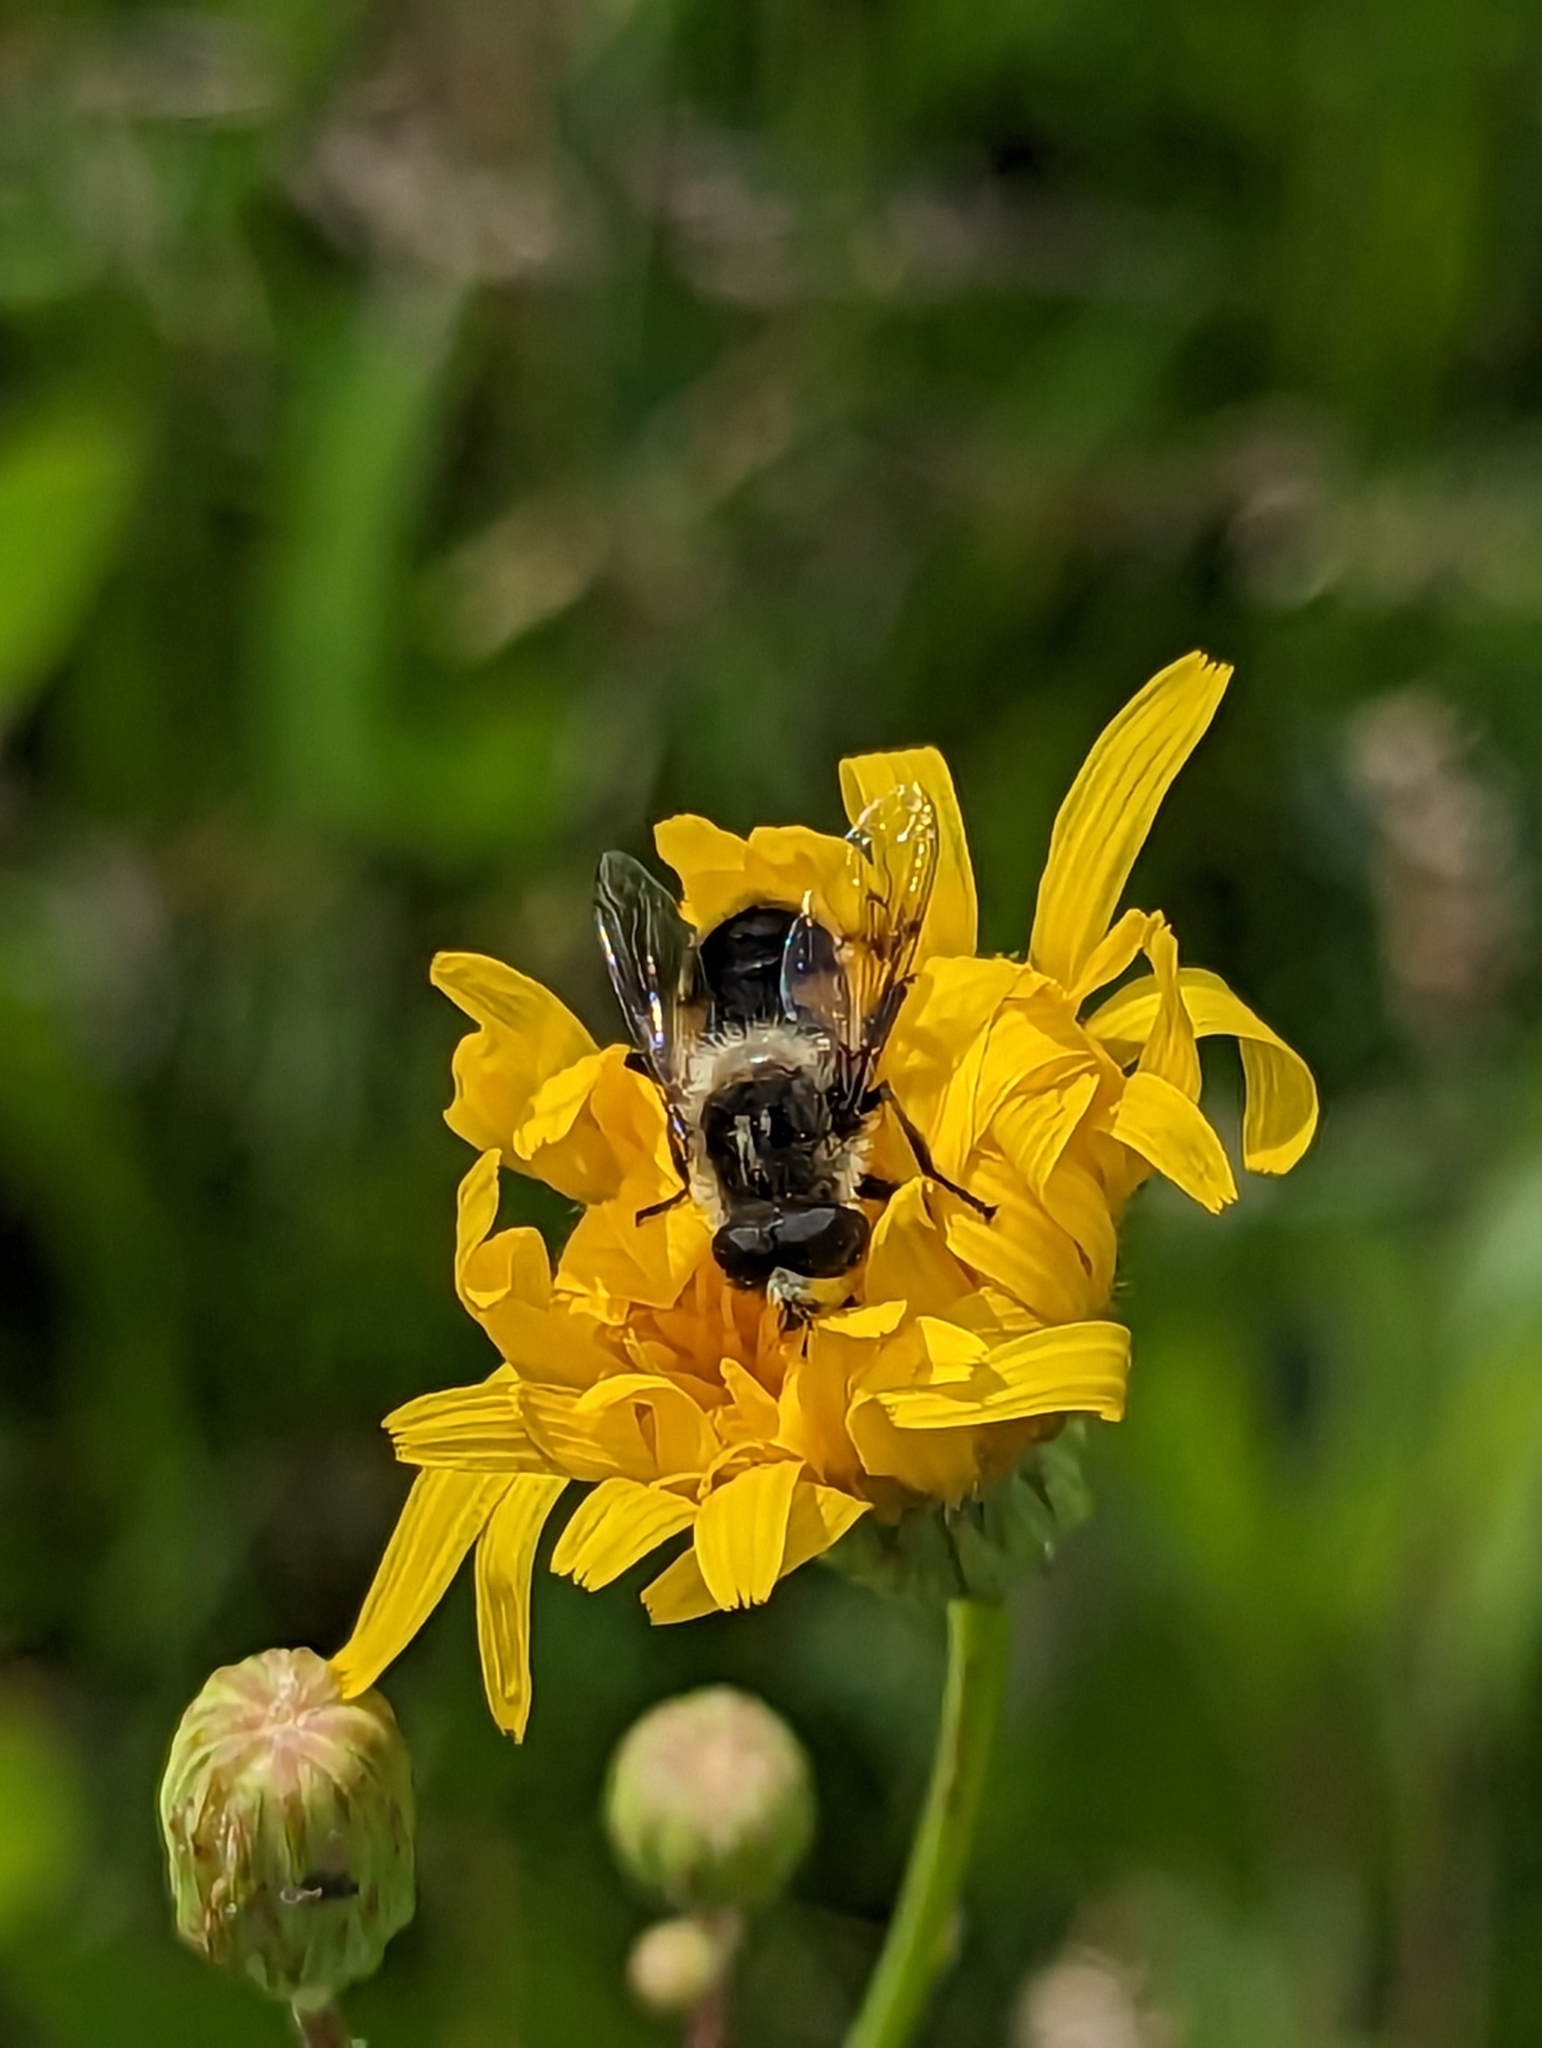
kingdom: Animalia
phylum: Arthropoda
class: Insecta
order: Diptera
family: Syrphidae
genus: Eristalis
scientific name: Eristalis anthophorina
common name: Orange-spotted drone fly
